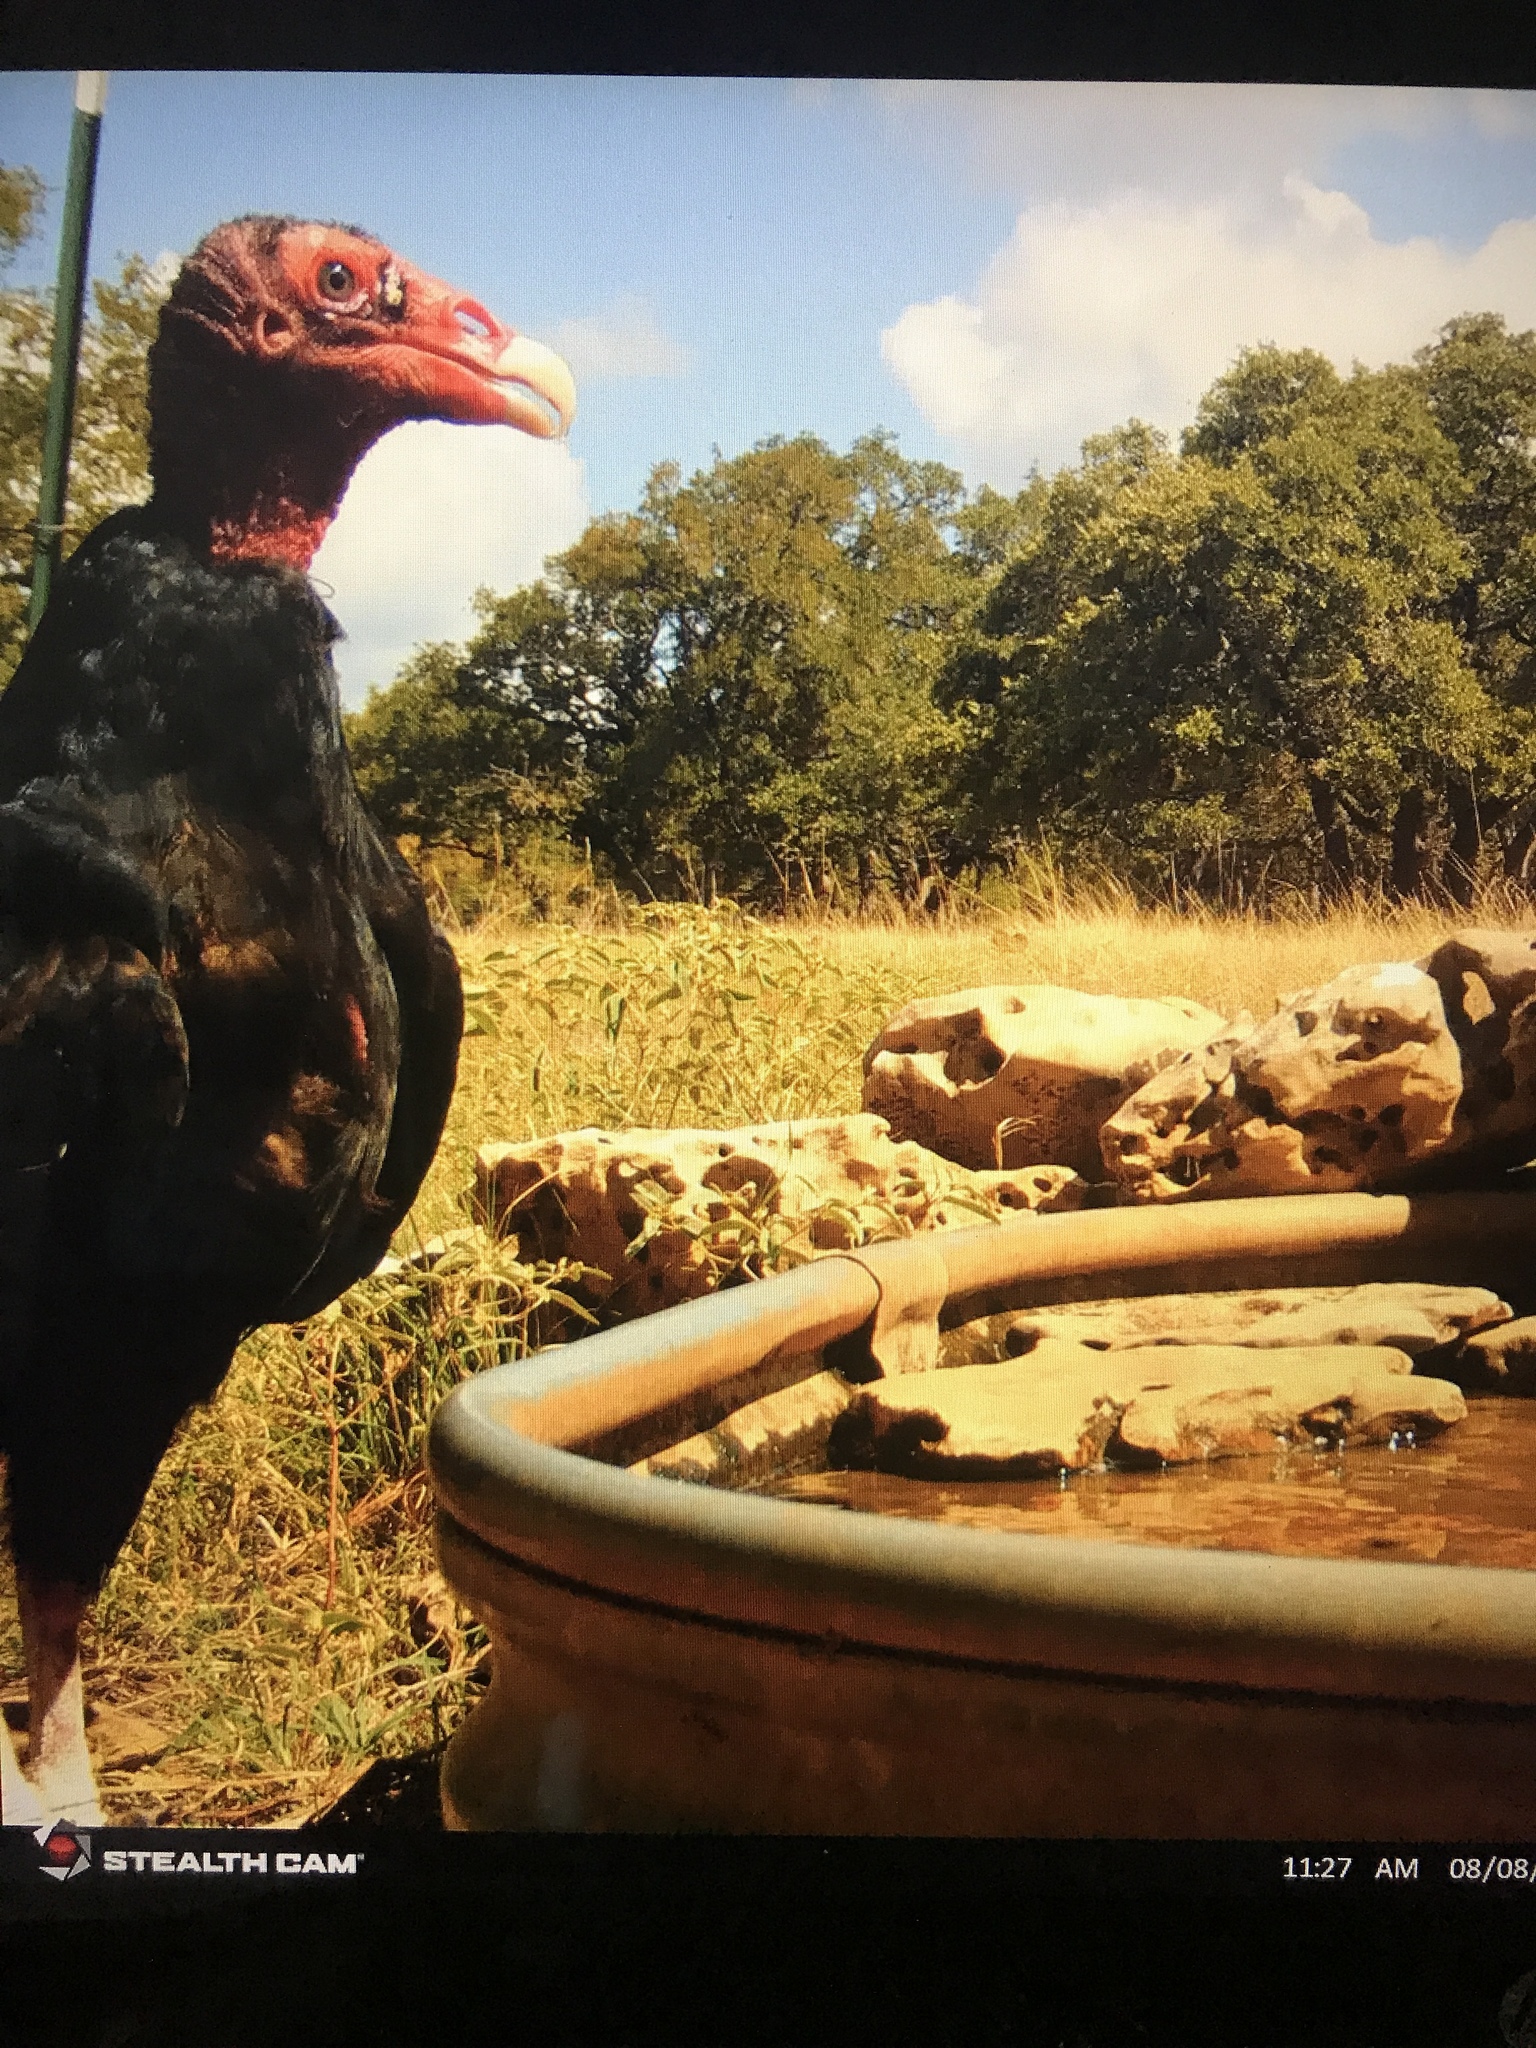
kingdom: Animalia
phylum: Chordata
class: Aves
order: Accipitriformes
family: Cathartidae
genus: Cathartes
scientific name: Cathartes aura
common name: Turkey vulture
